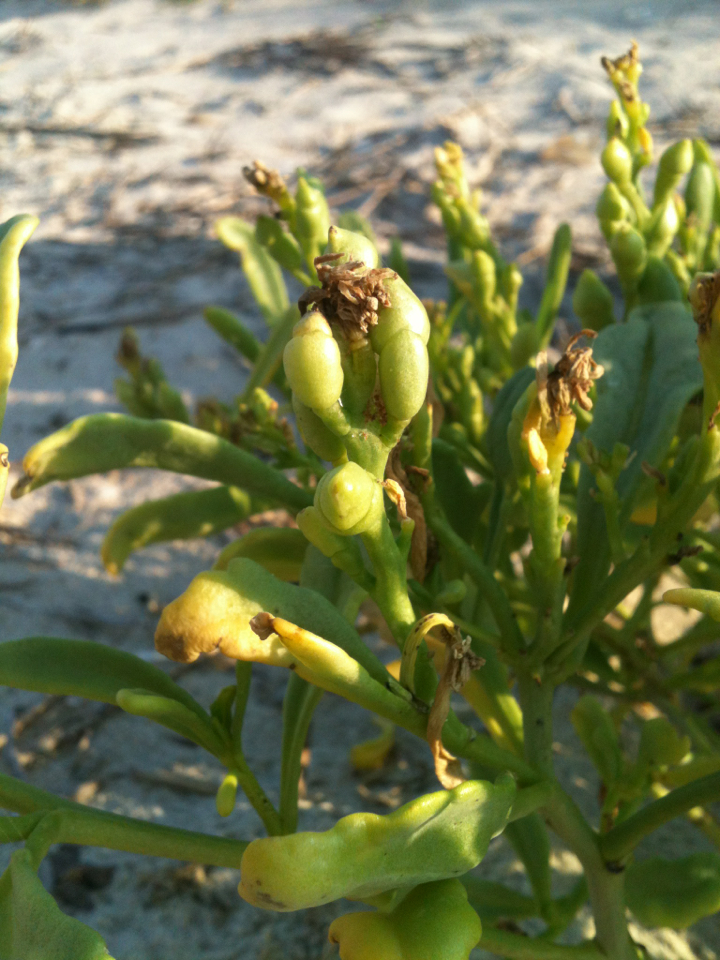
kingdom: Plantae
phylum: Tracheophyta
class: Magnoliopsida
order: Brassicales
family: Brassicaceae
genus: Cakile
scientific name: Cakile edentula
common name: American sea rocket
